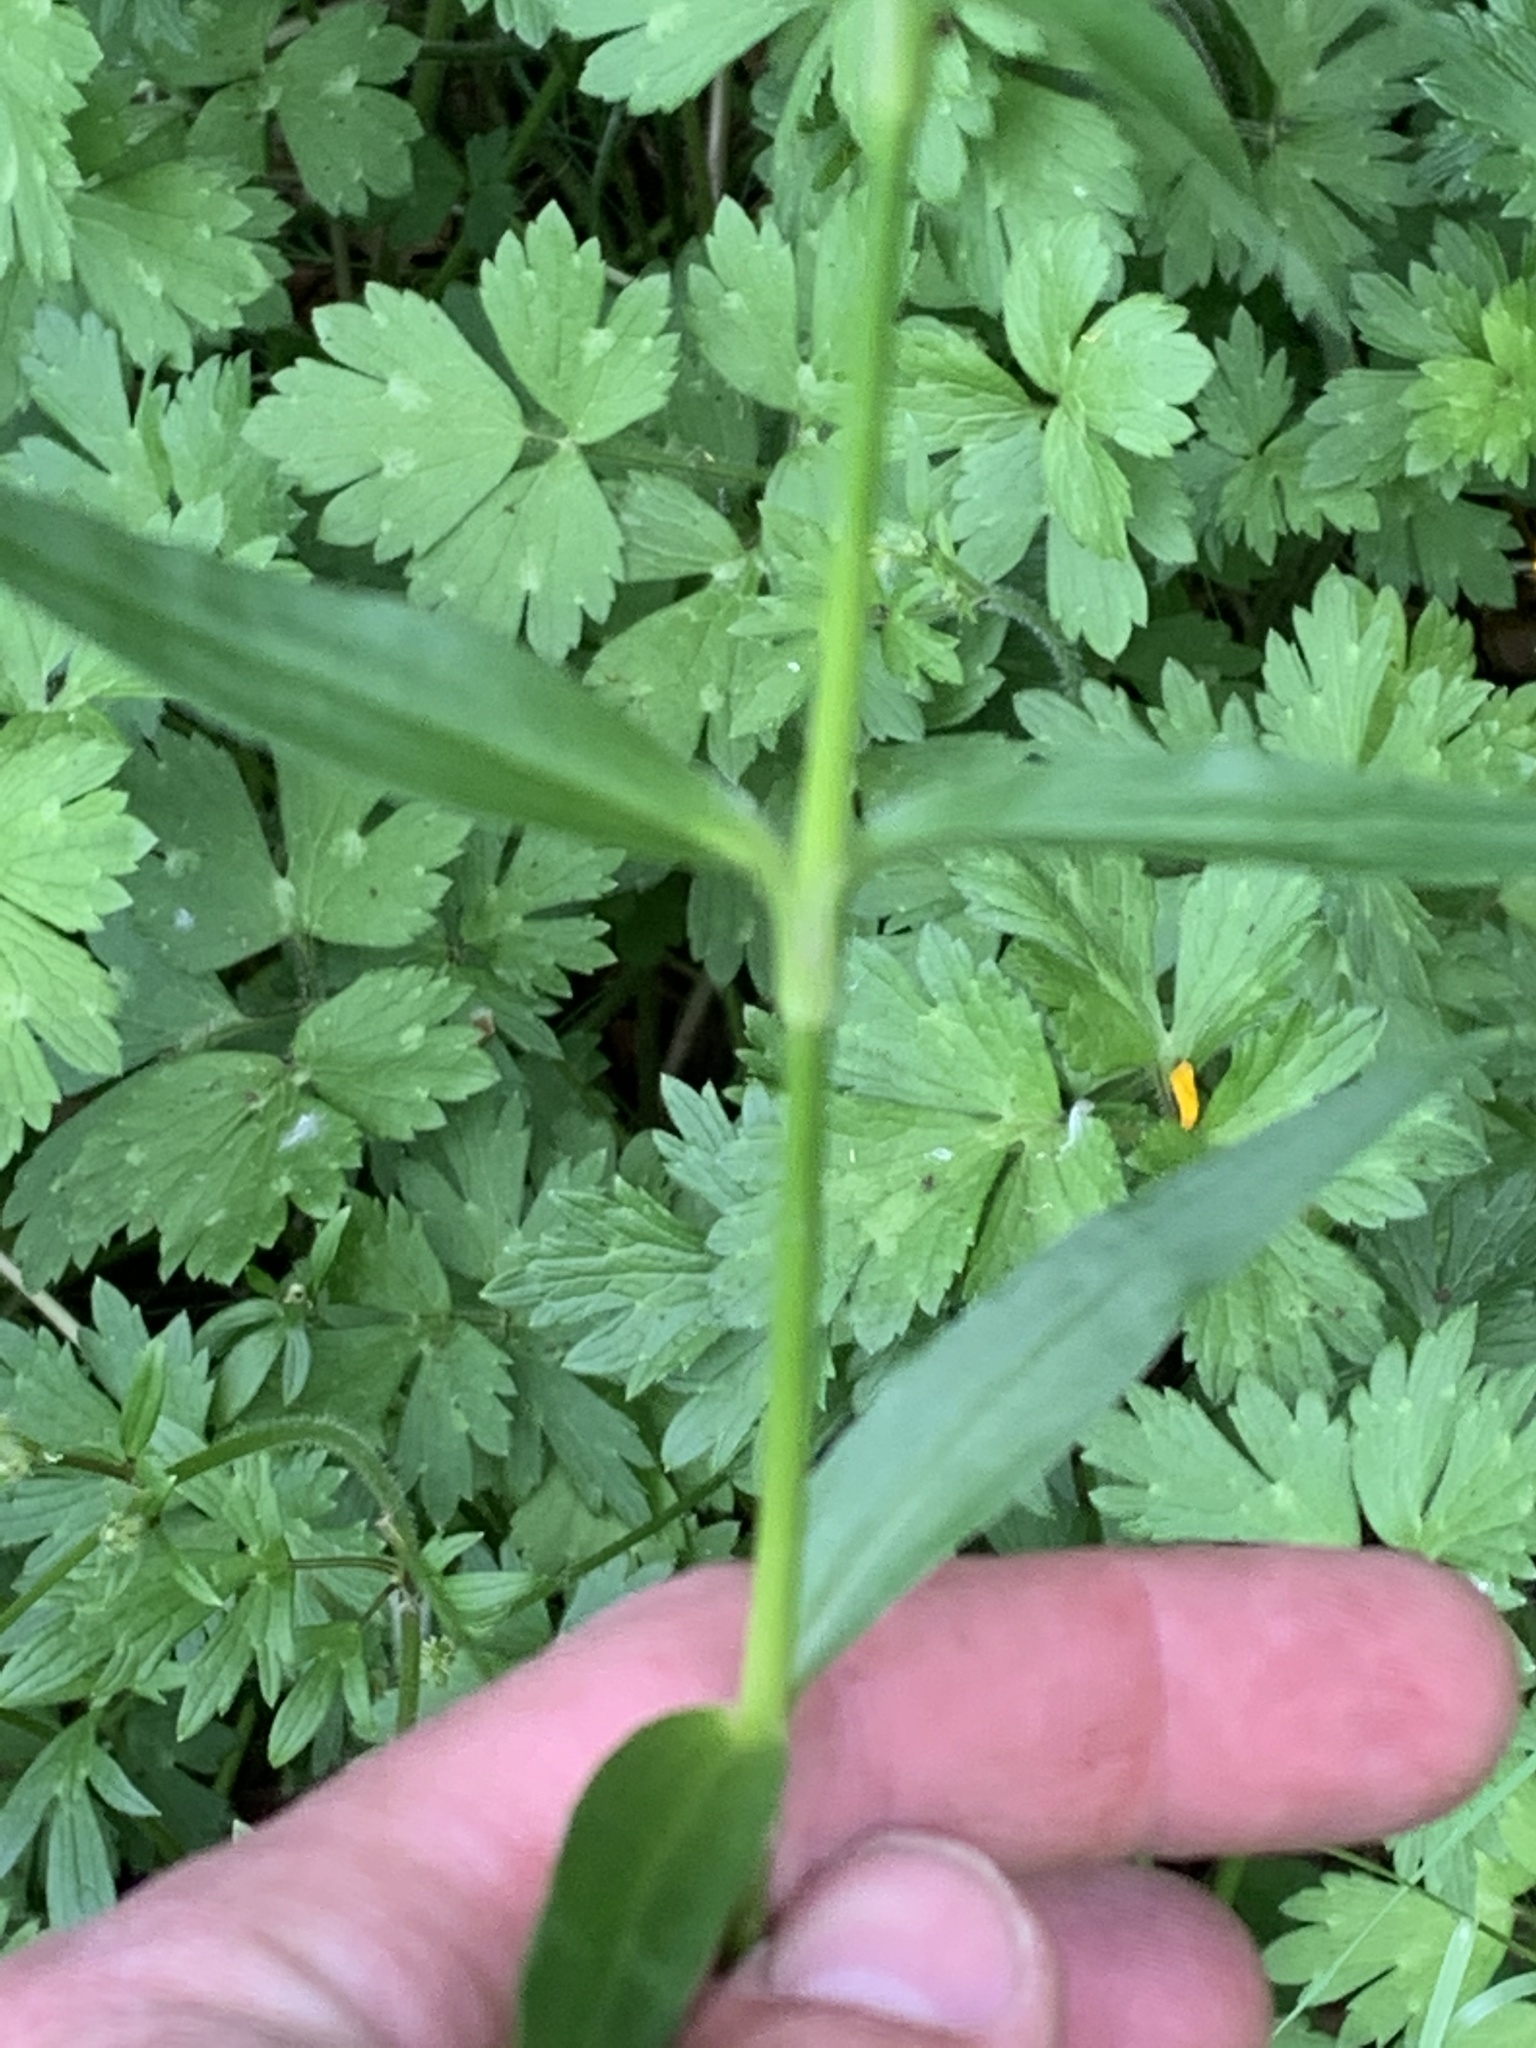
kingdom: Plantae
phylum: Tracheophyta
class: Magnoliopsida
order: Caryophyllales
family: Caryophyllaceae
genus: Dianthus
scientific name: Dianthus barbatus
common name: Sweet-william
